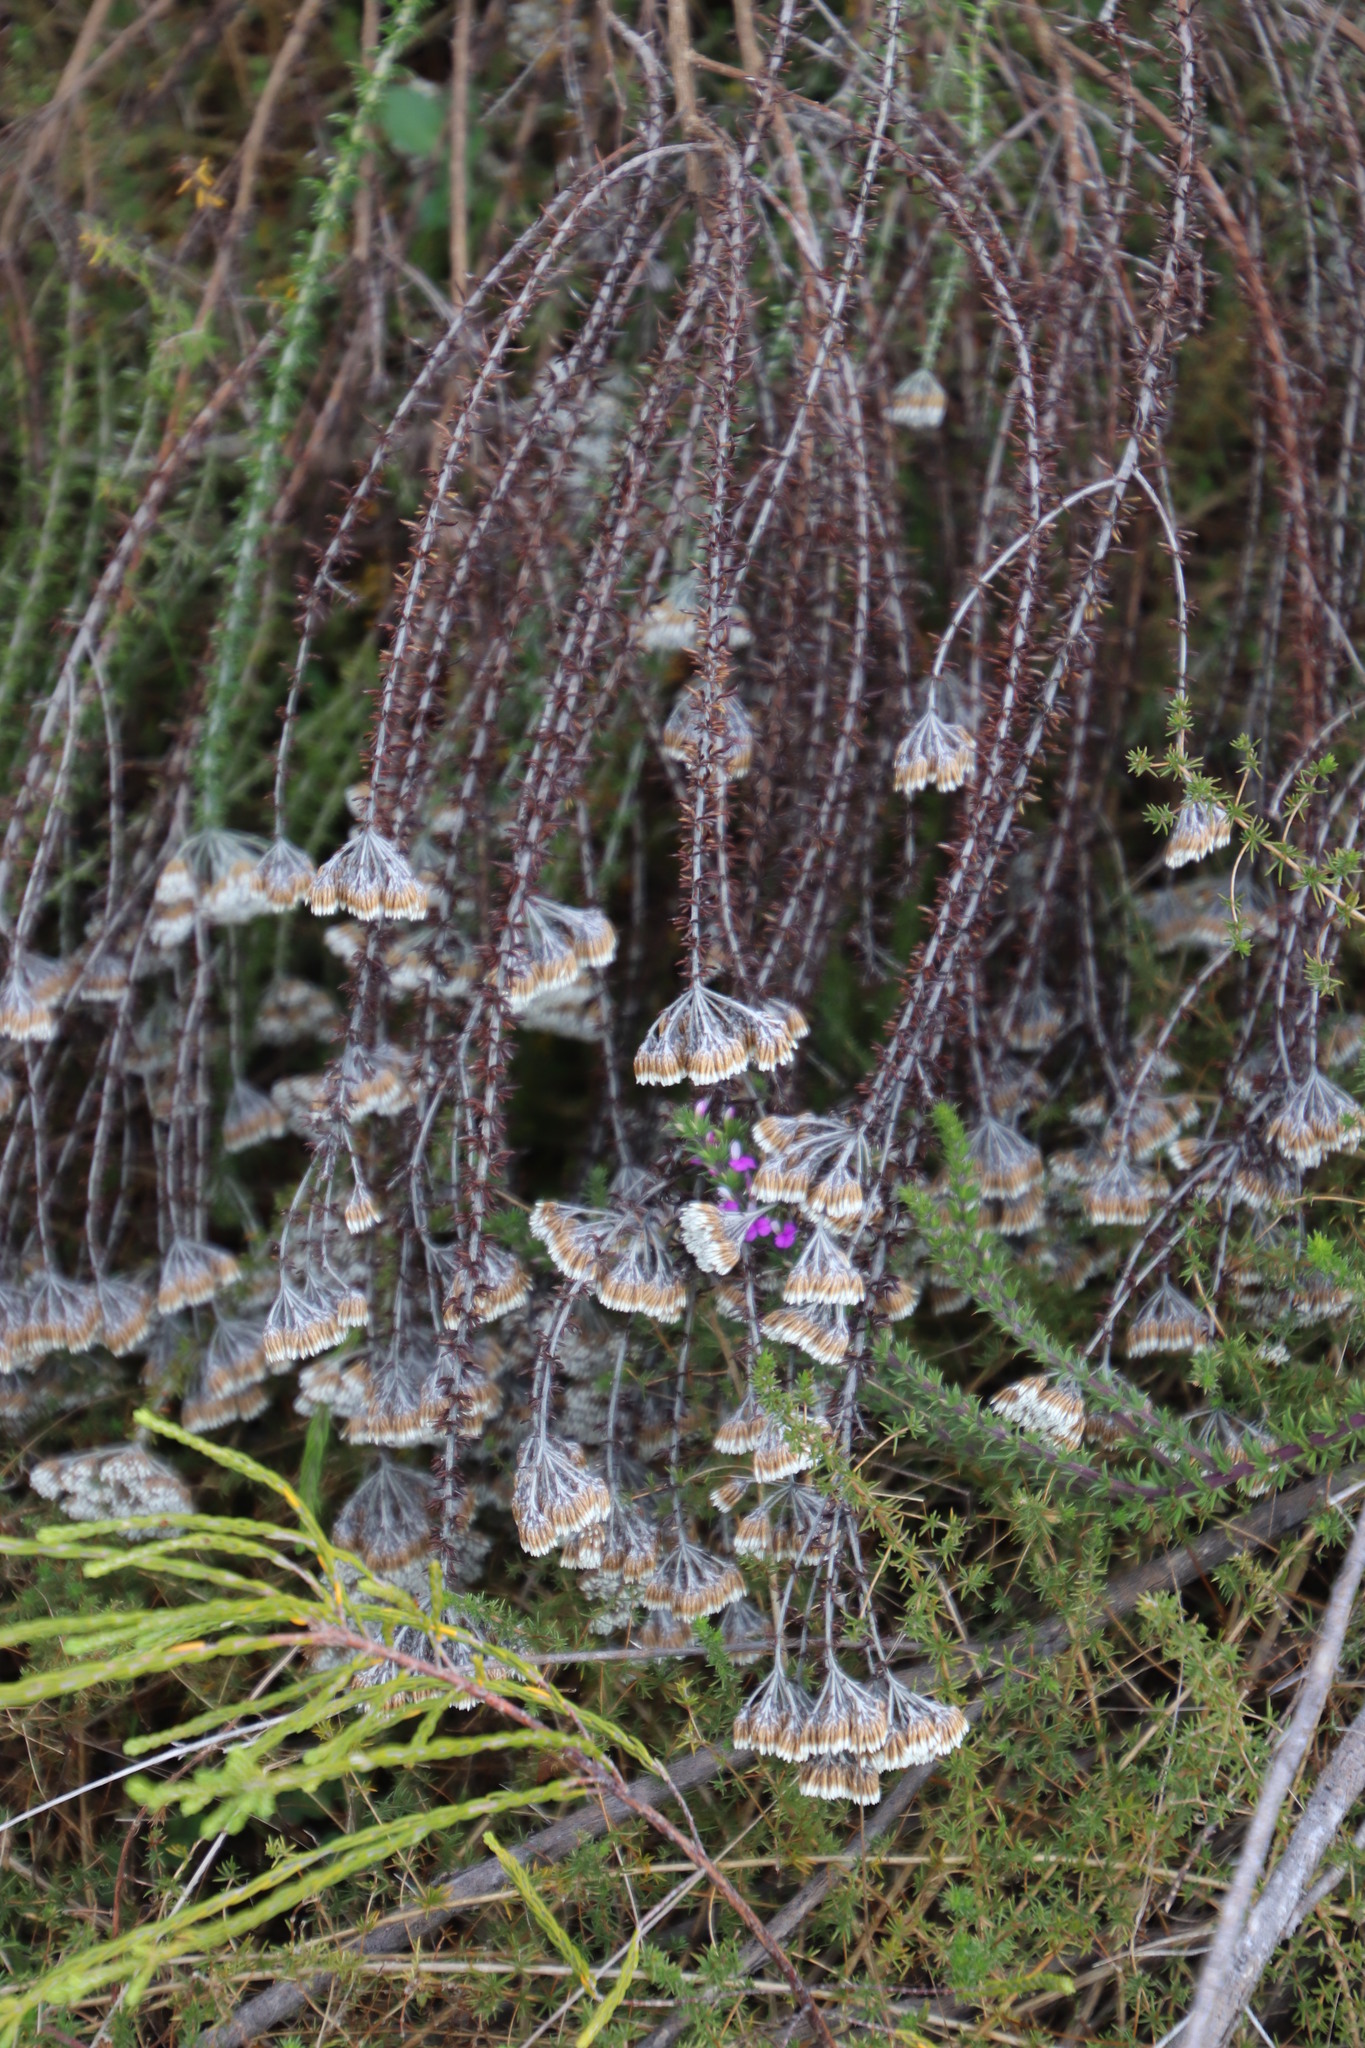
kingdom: Plantae
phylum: Tracheophyta
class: Magnoliopsida
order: Asterales
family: Asteraceae
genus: Metalasia
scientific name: Metalasia densa
